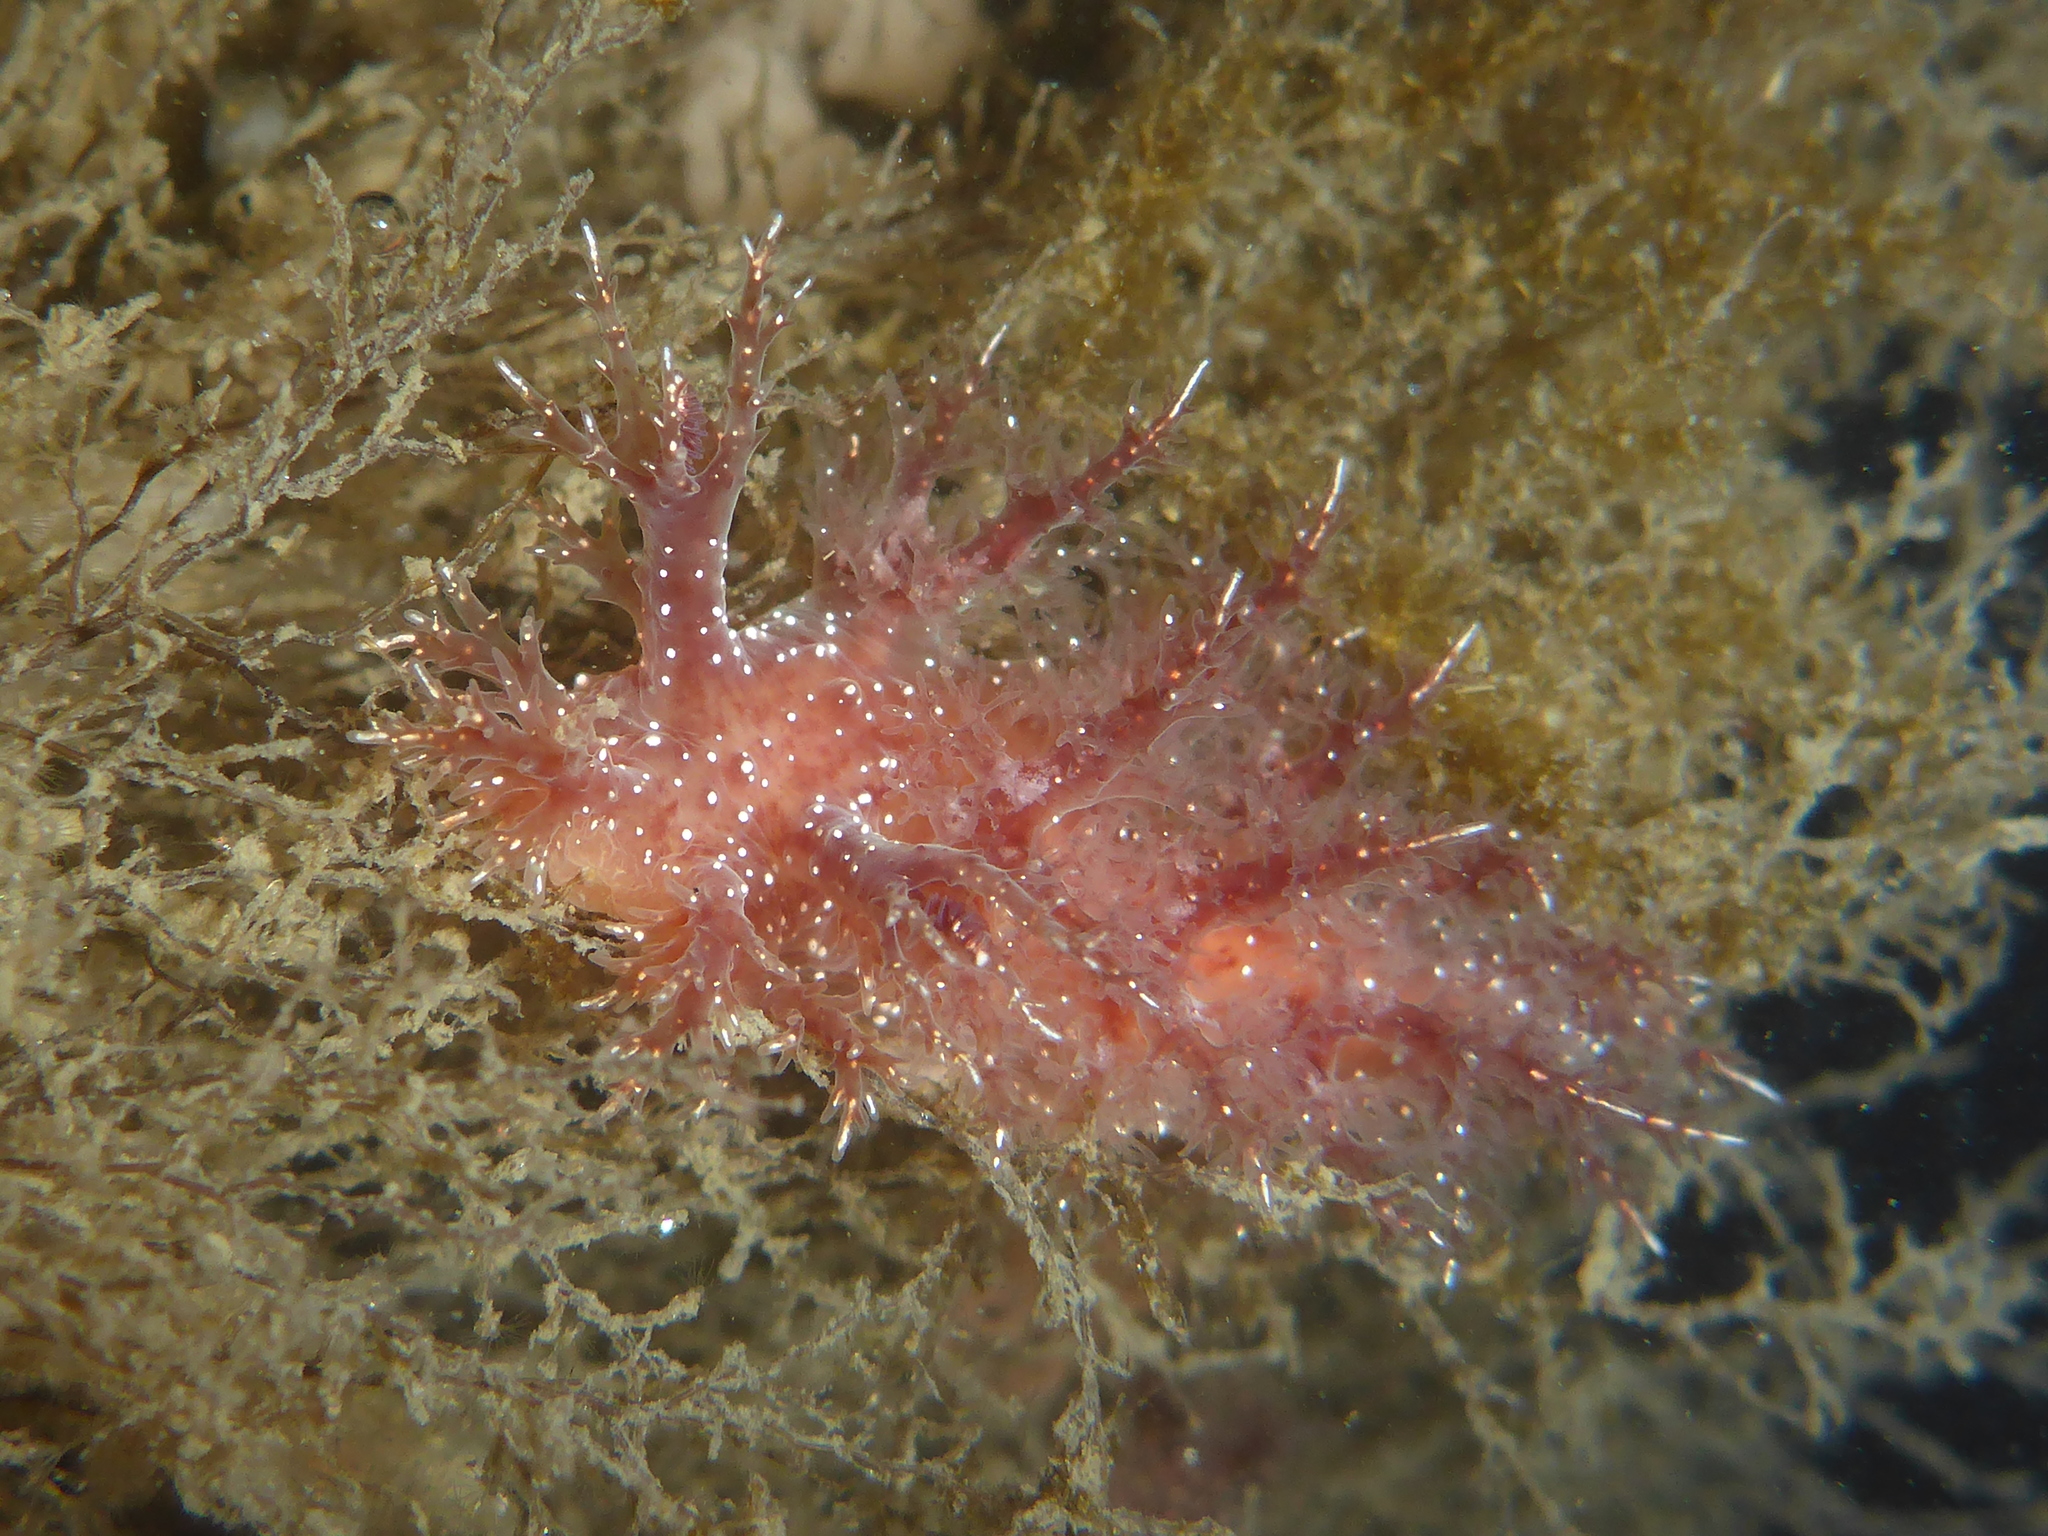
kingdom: Animalia
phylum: Mollusca
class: Gastropoda
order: Nudibranchia
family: Dendronotidae
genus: Dendronotus
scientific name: Dendronotus venustus
